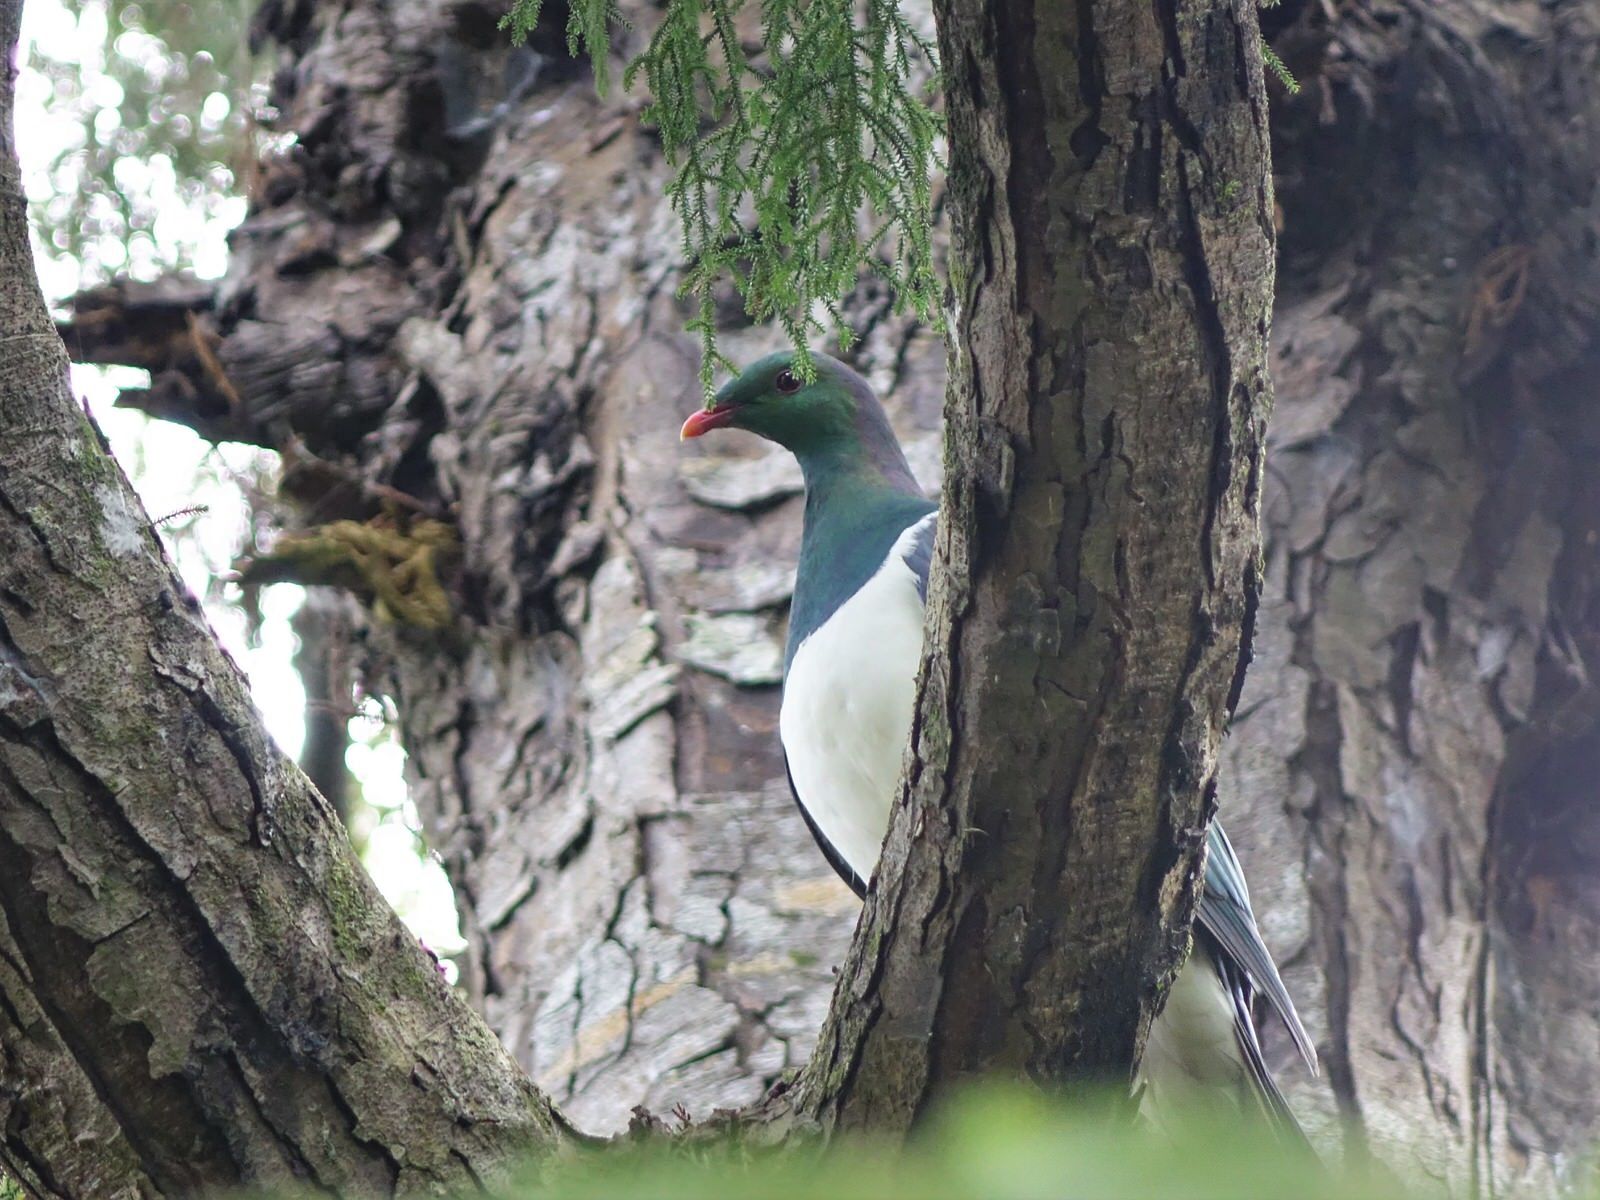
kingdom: Animalia
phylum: Chordata
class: Aves
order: Columbiformes
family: Columbidae
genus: Hemiphaga
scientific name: Hemiphaga novaeseelandiae
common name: New zealand pigeon
